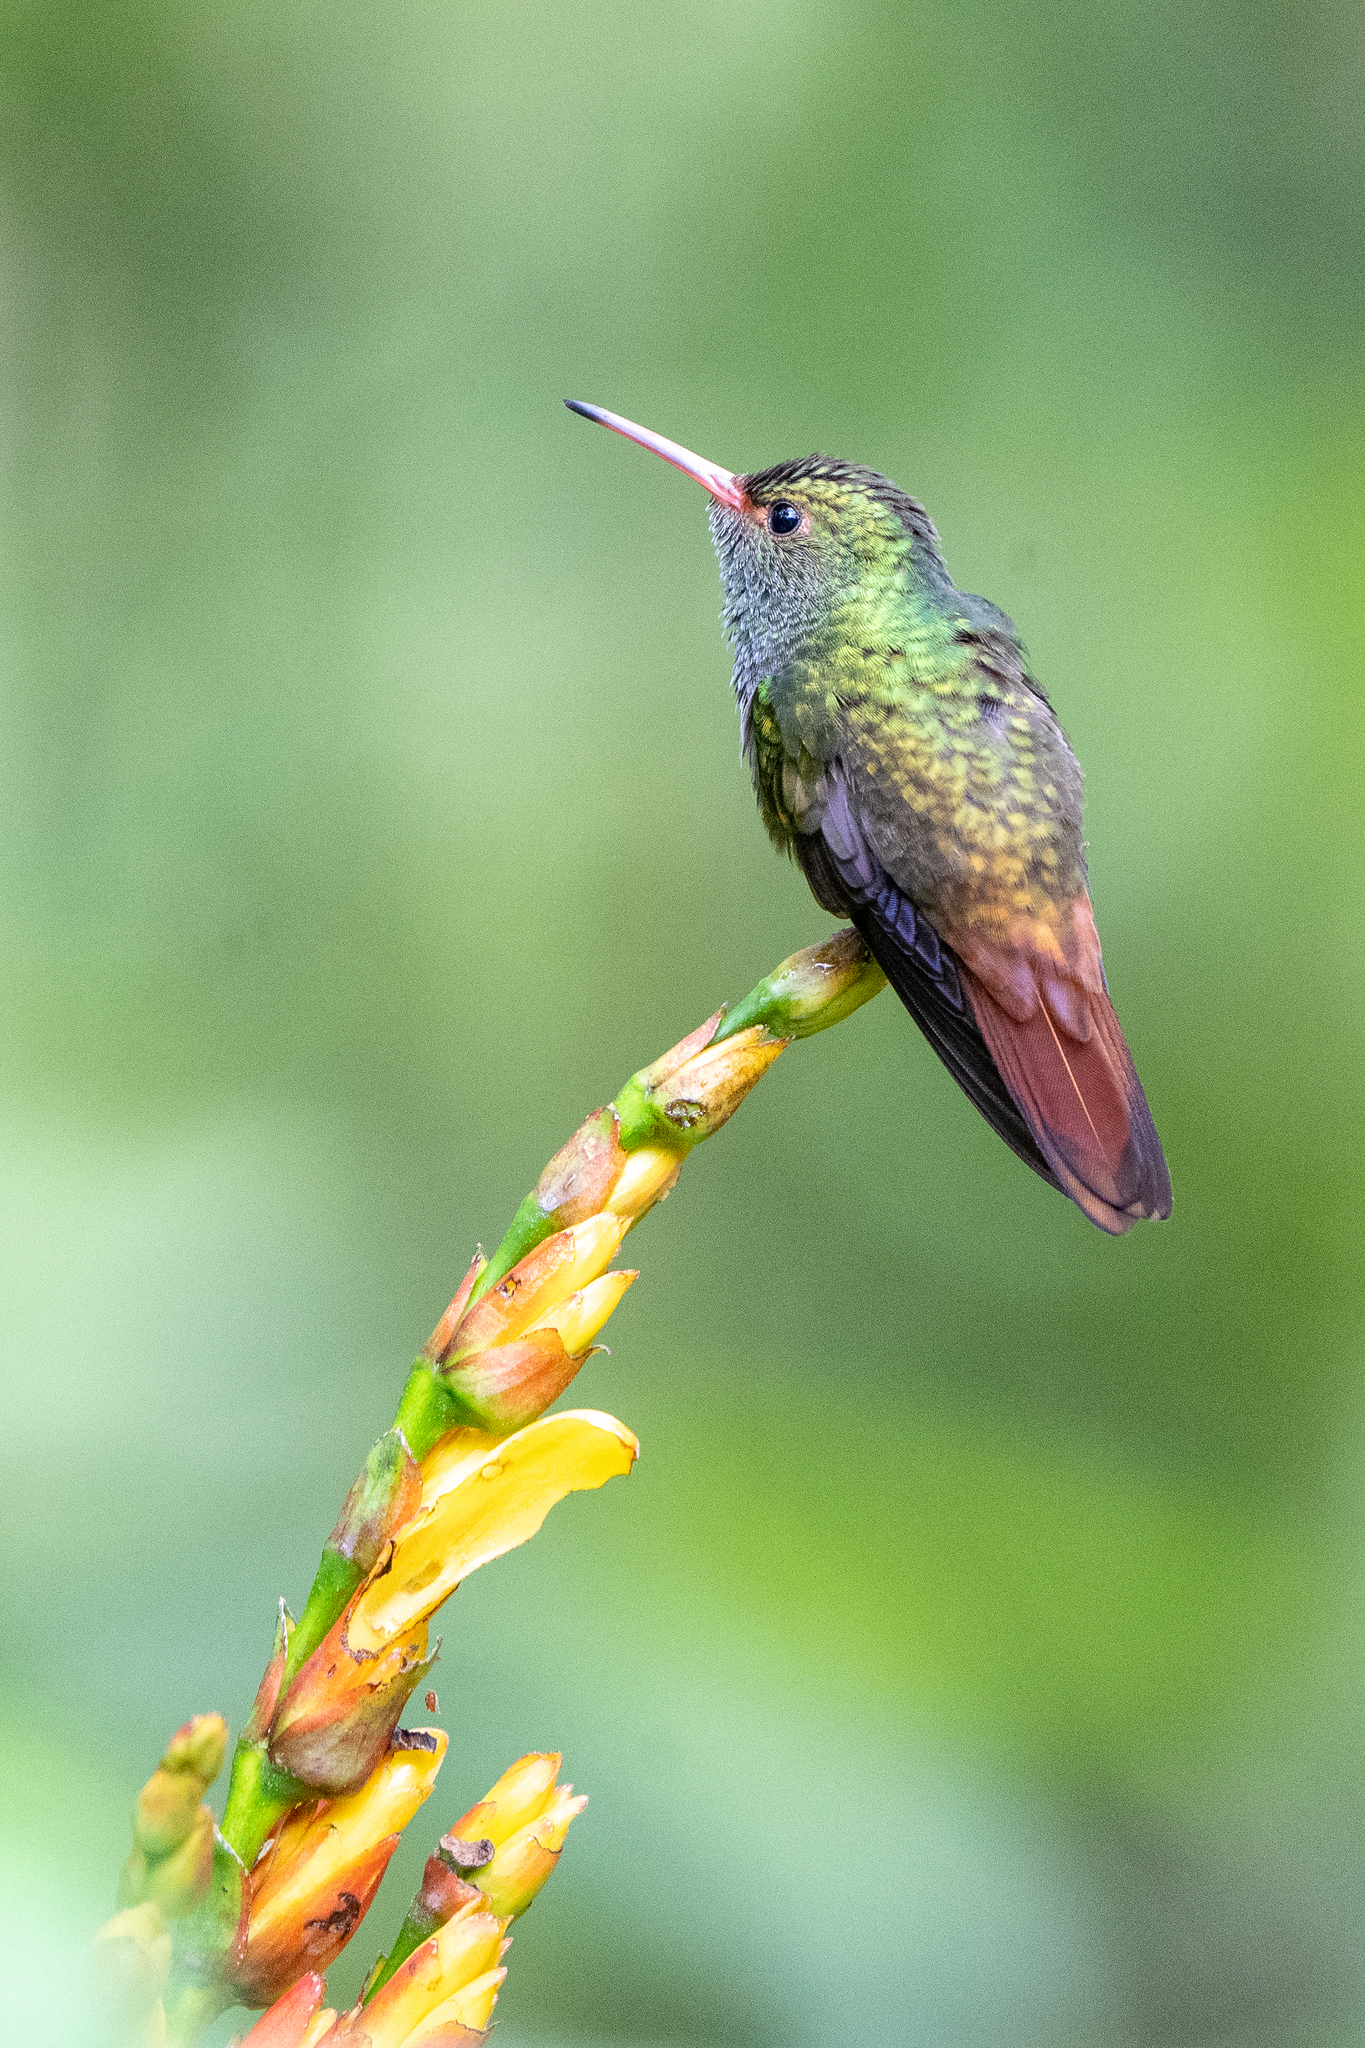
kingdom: Animalia
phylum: Chordata
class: Aves
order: Apodiformes
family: Trochilidae
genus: Amazilia
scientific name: Amazilia tzacatl
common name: Rufous-tailed hummingbird
